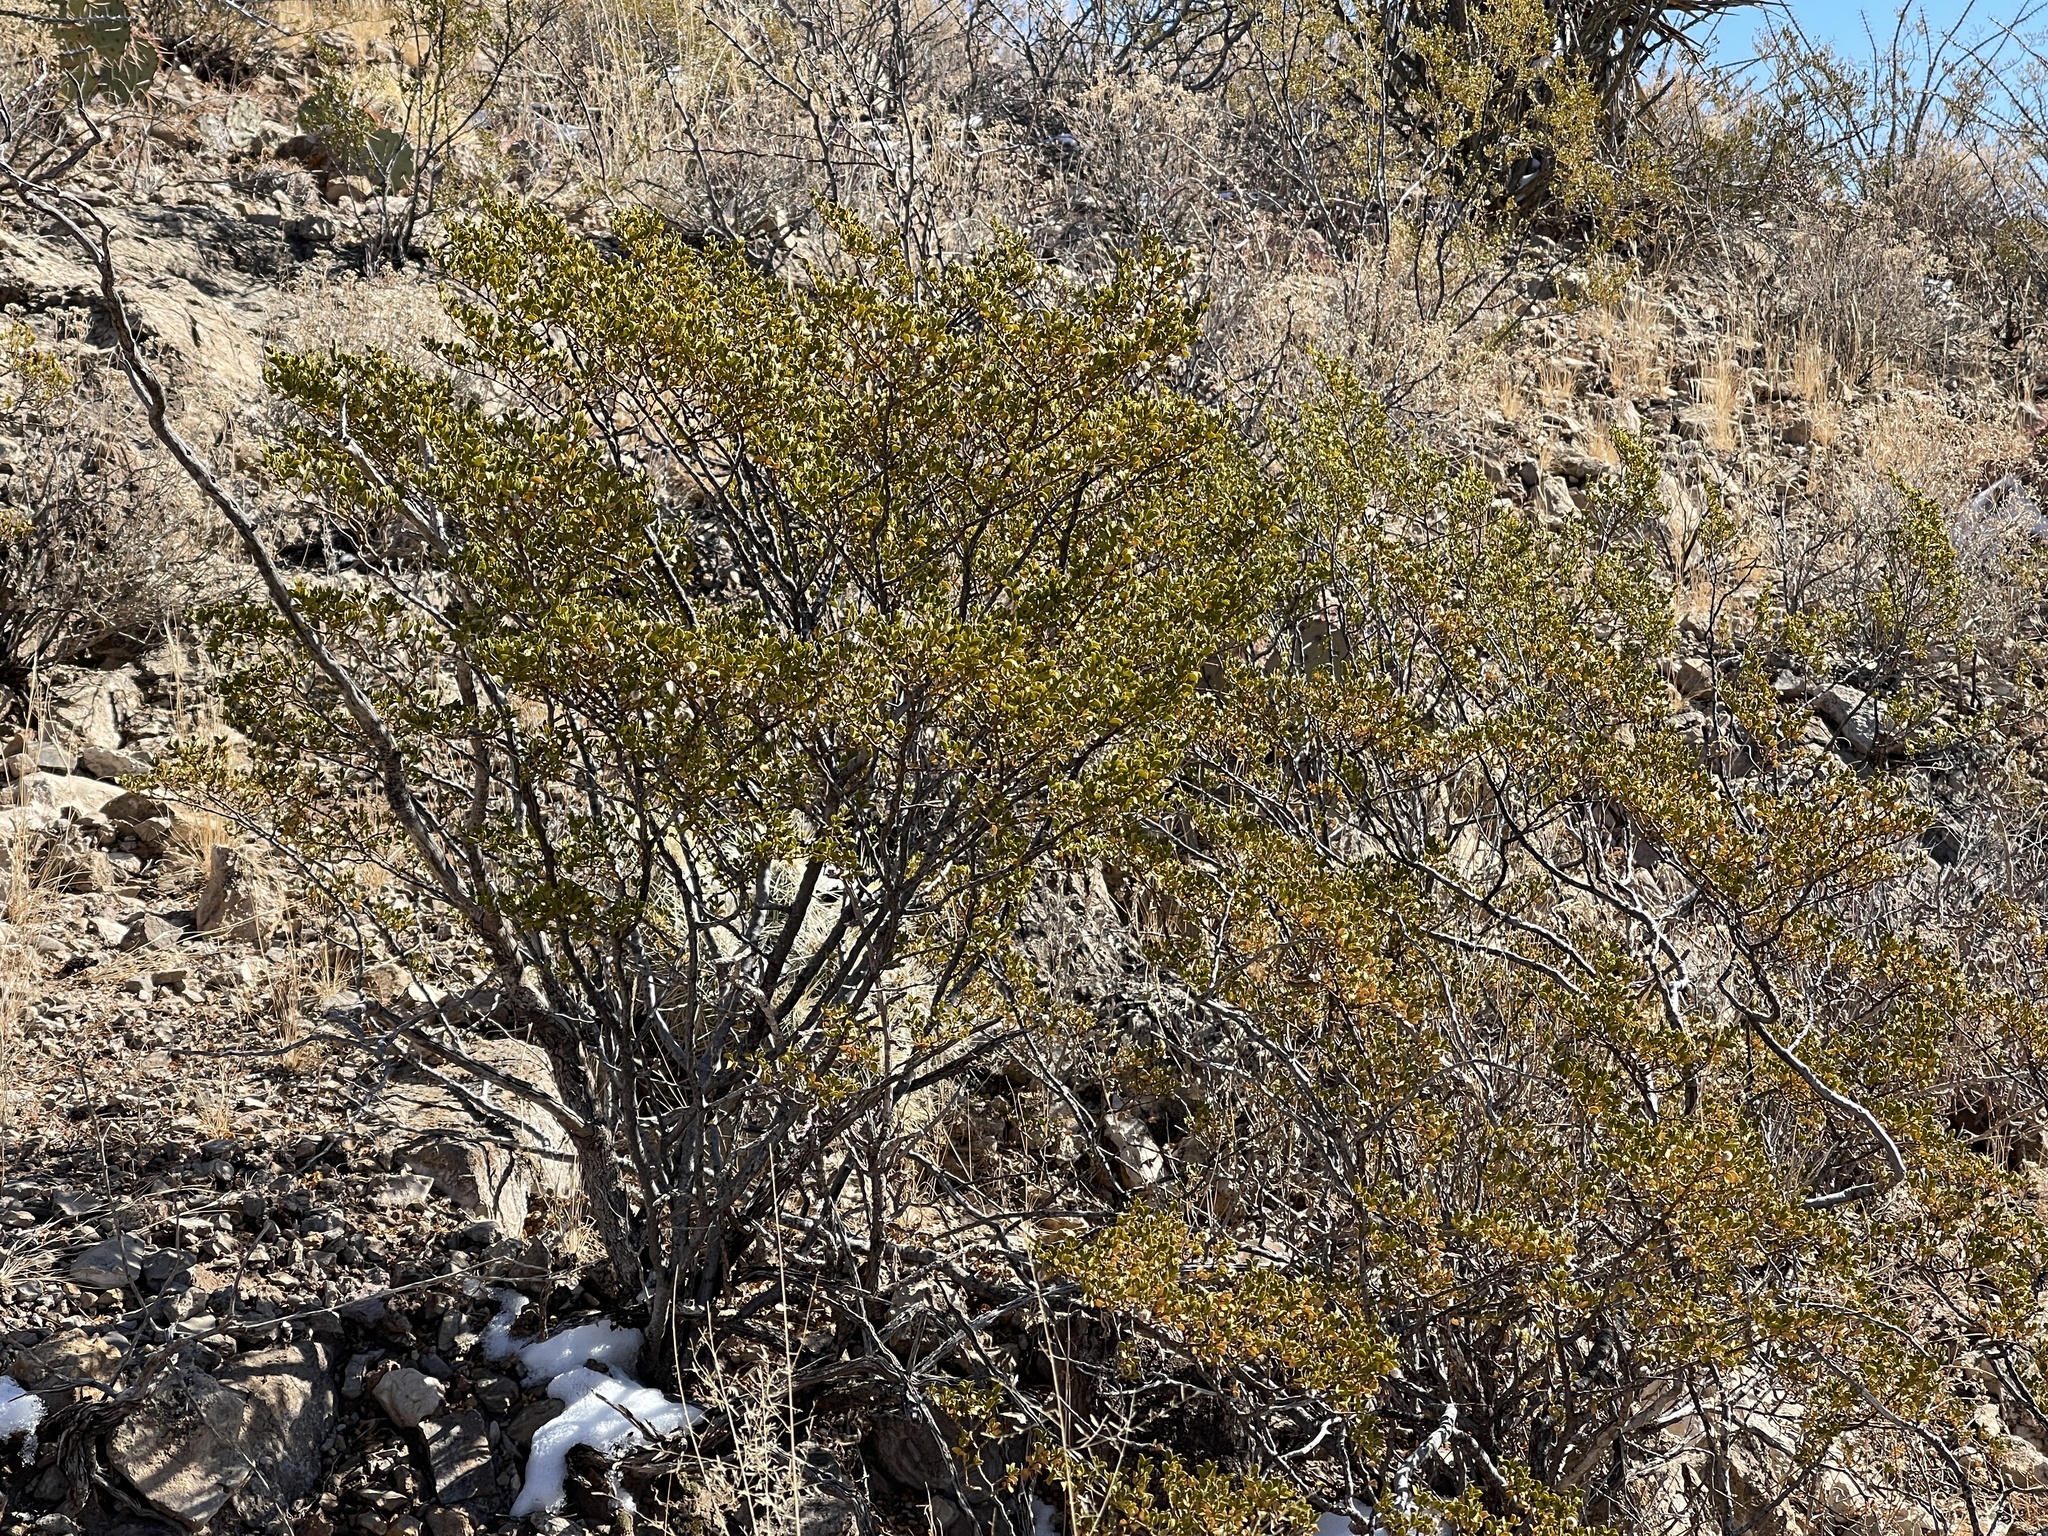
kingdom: Plantae
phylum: Tracheophyta
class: Magnoliopsida
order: Zygophyllales
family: Zygophyllaceae
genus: Larrea
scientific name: Larrea tridentata
